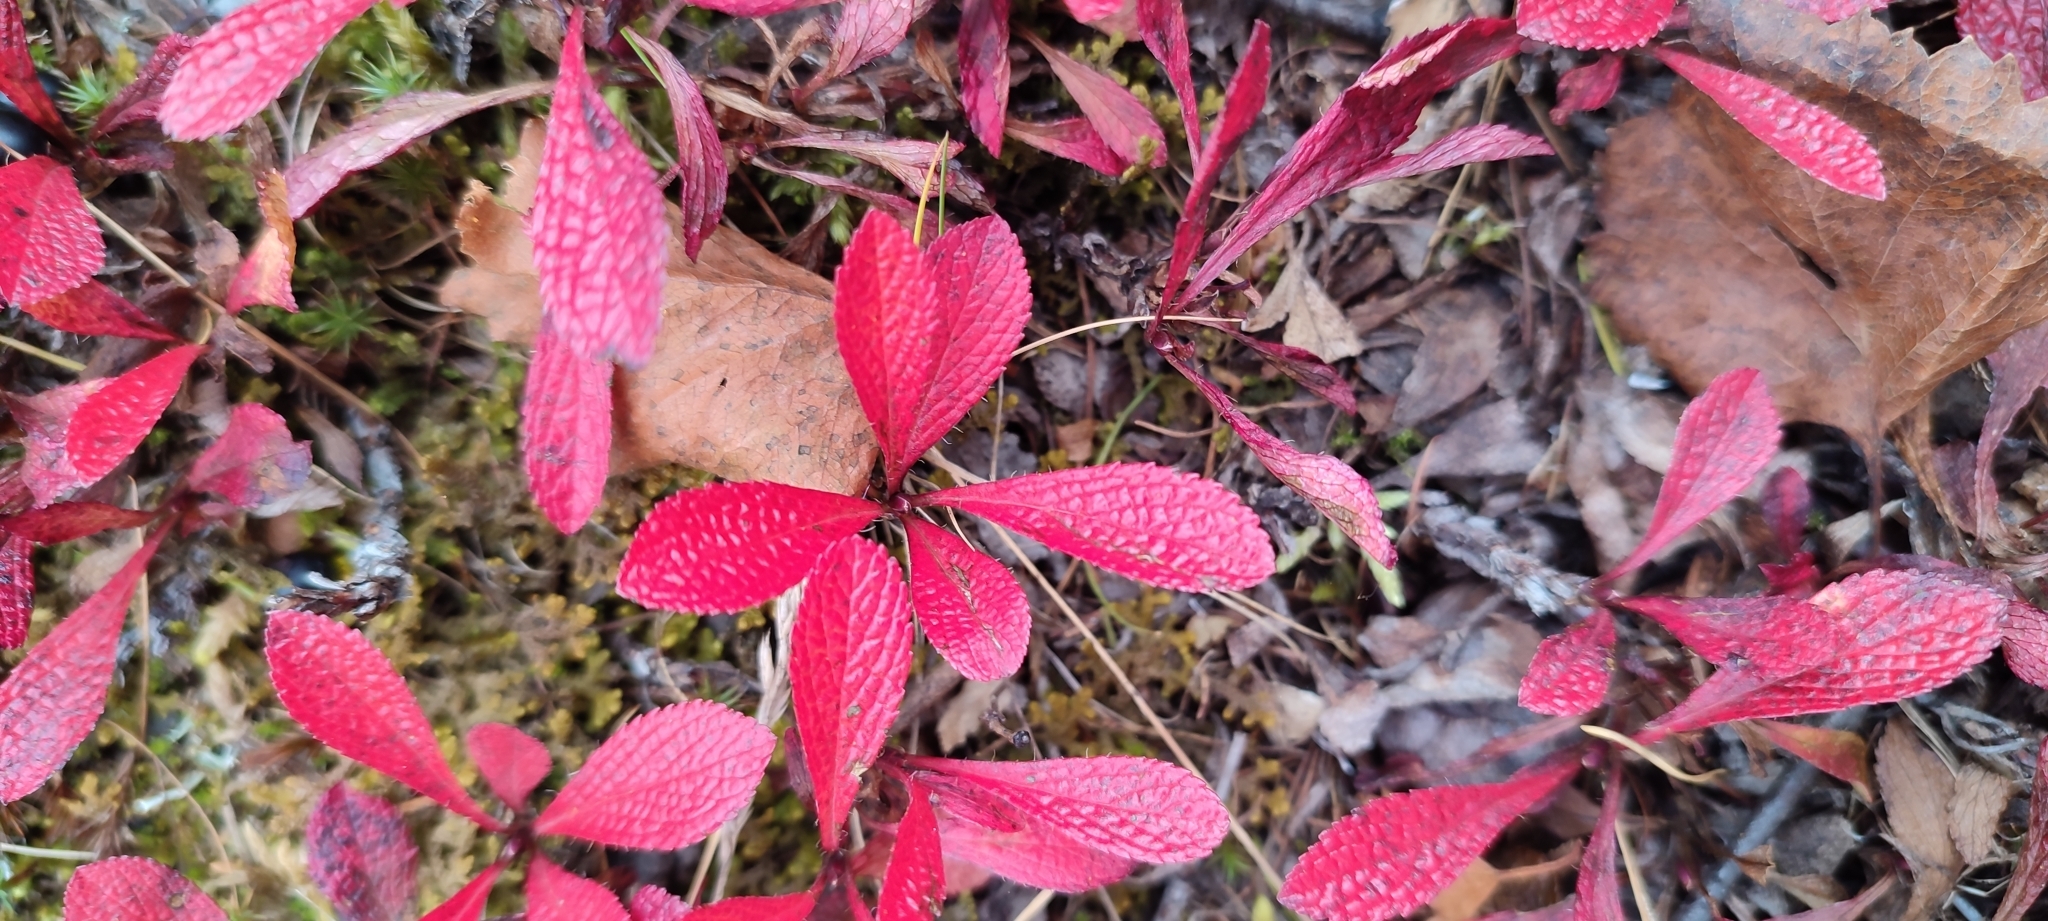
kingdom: Plantae
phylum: Tracheophyta
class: Magnoliopsida
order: Ericales
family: Ericaceae
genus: Arctostaphylos
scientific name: Arctostaphylos alpinus
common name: Alpine bearberry
